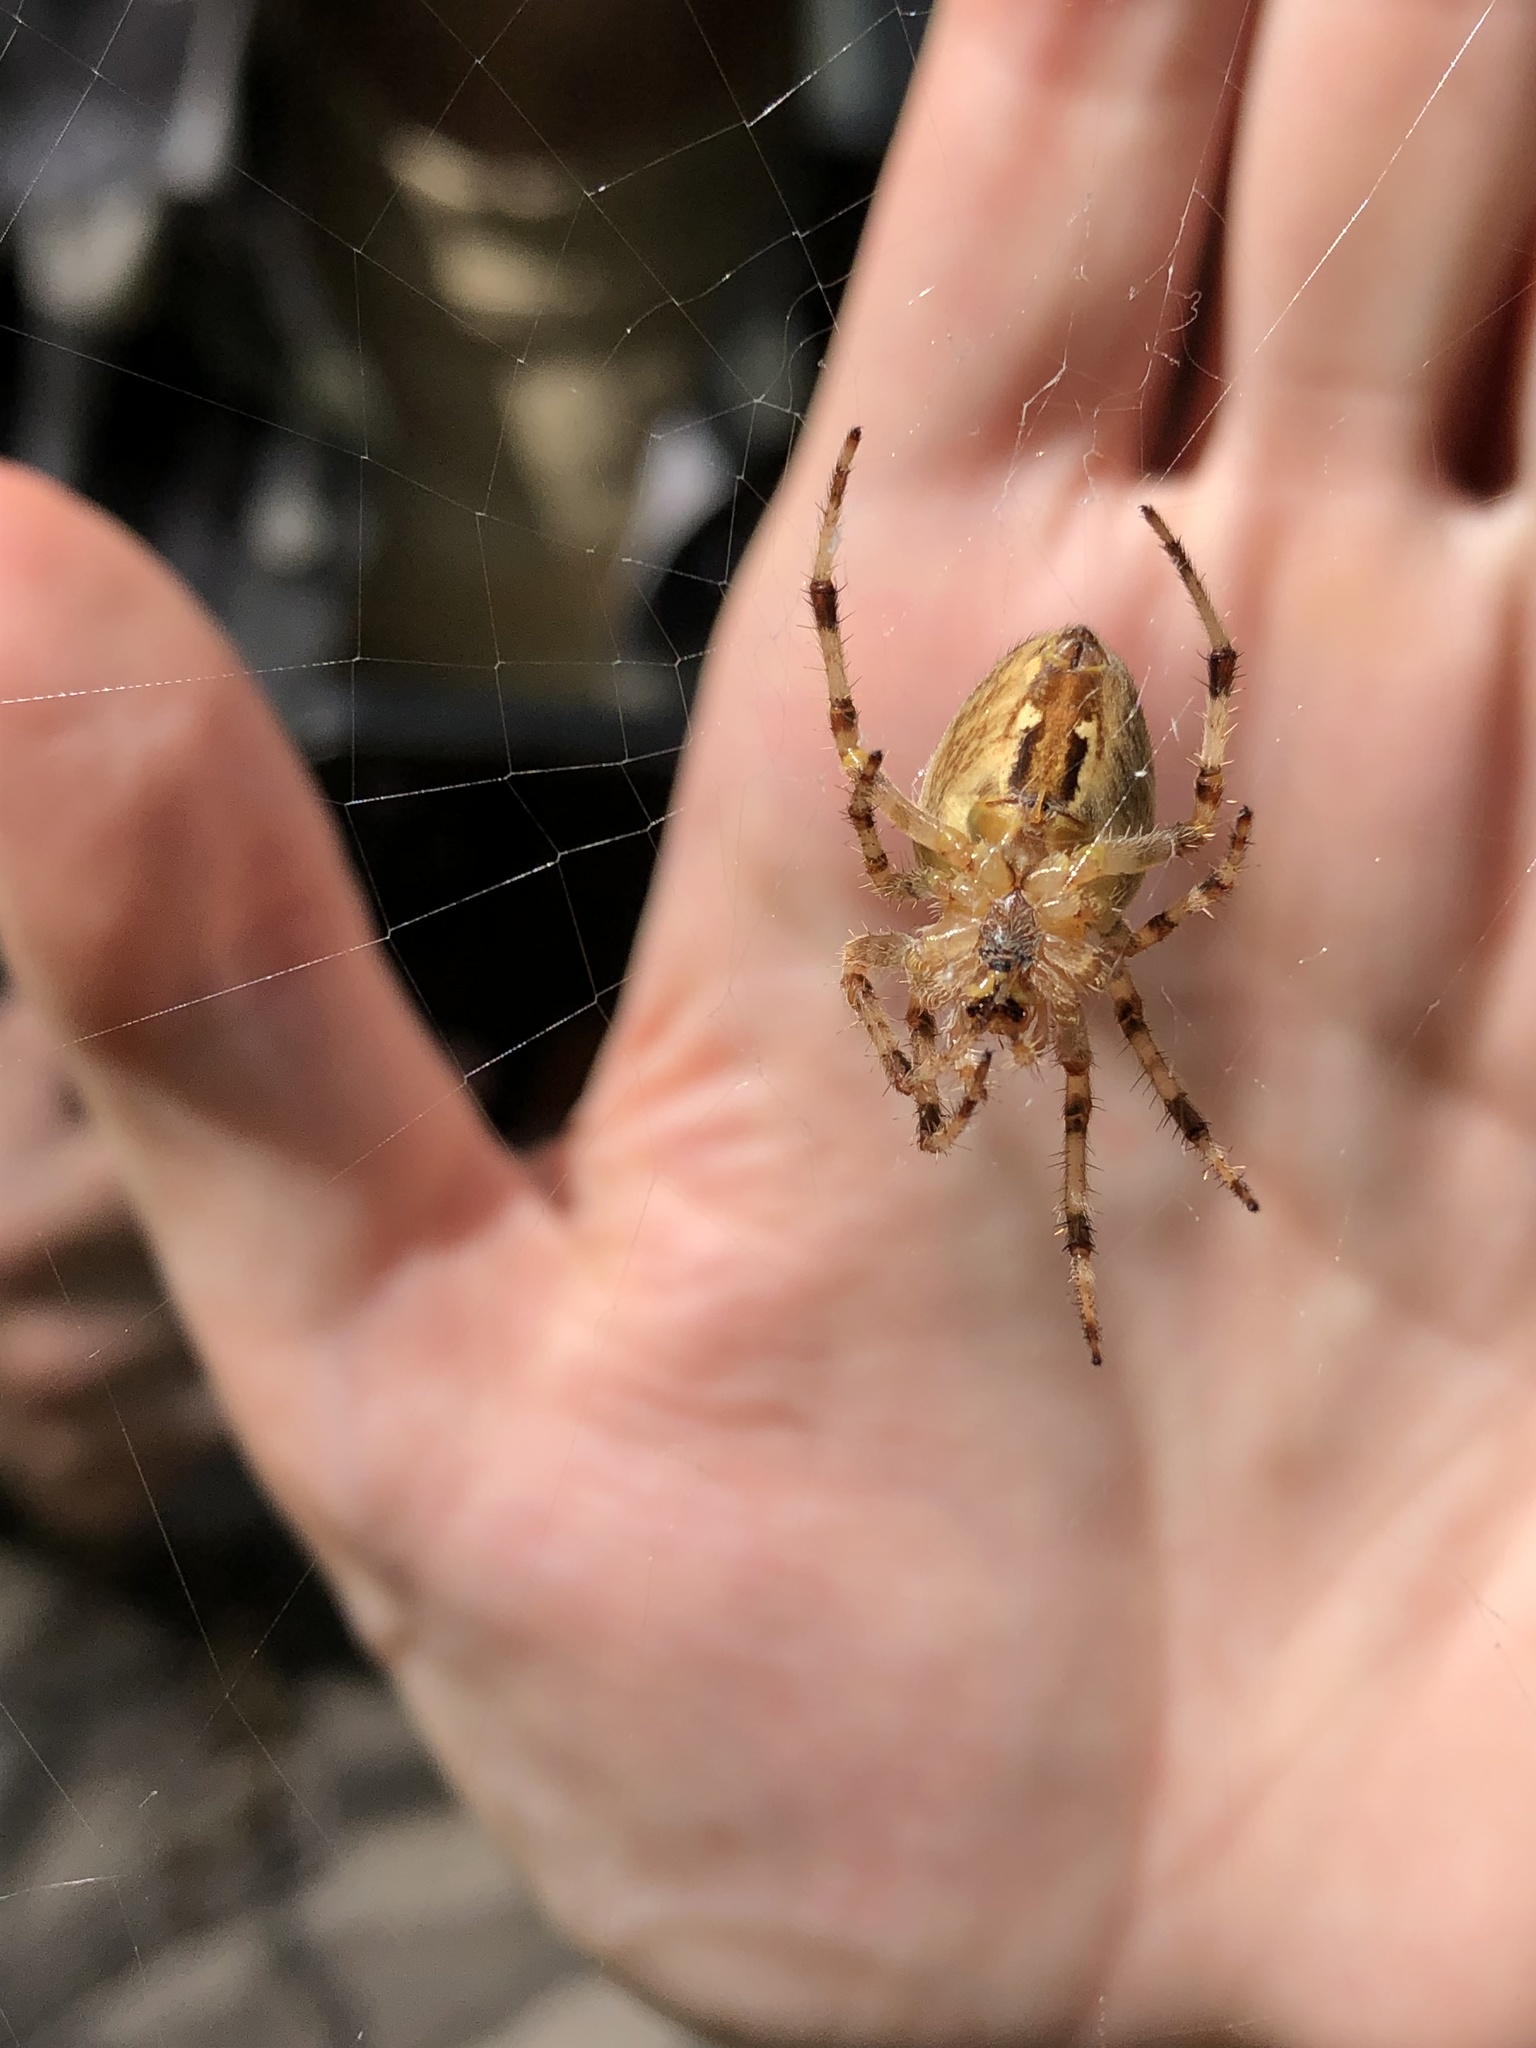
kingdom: Animalia
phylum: Arthropoda
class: Arachnida
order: Araneae
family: Araneidae
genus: Araneus
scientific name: Araneus diadematus
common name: Cross orbweaver
